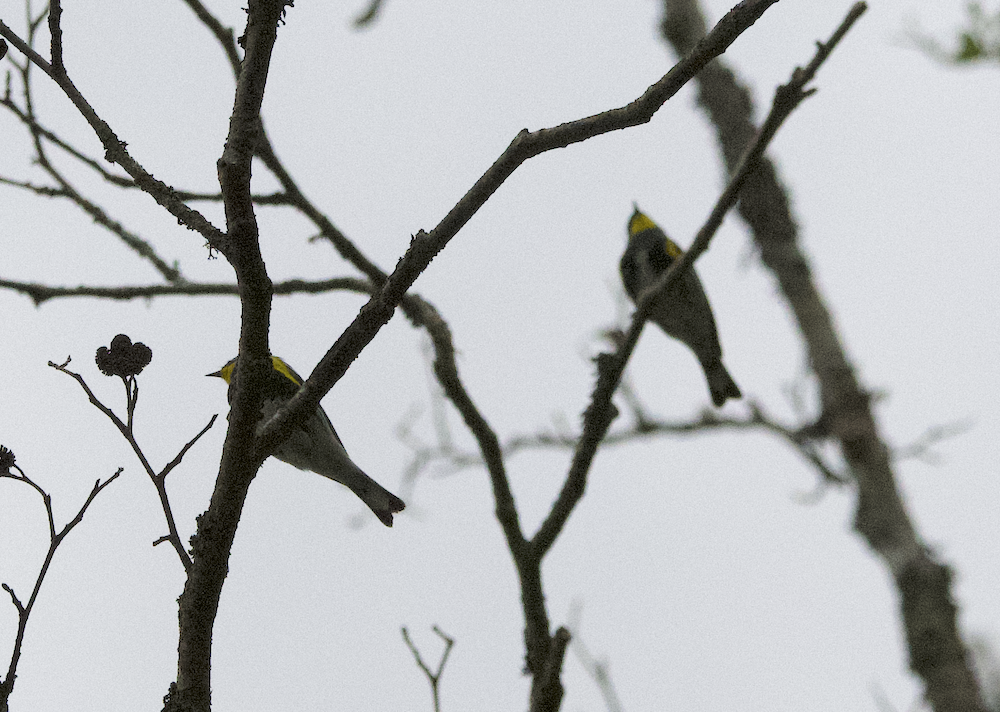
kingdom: Animalia
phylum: Chordata
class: Aves
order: Passeriformes
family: Parulidae
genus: Setophaga
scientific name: Setophaga auduboni
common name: Audubon's warbler
